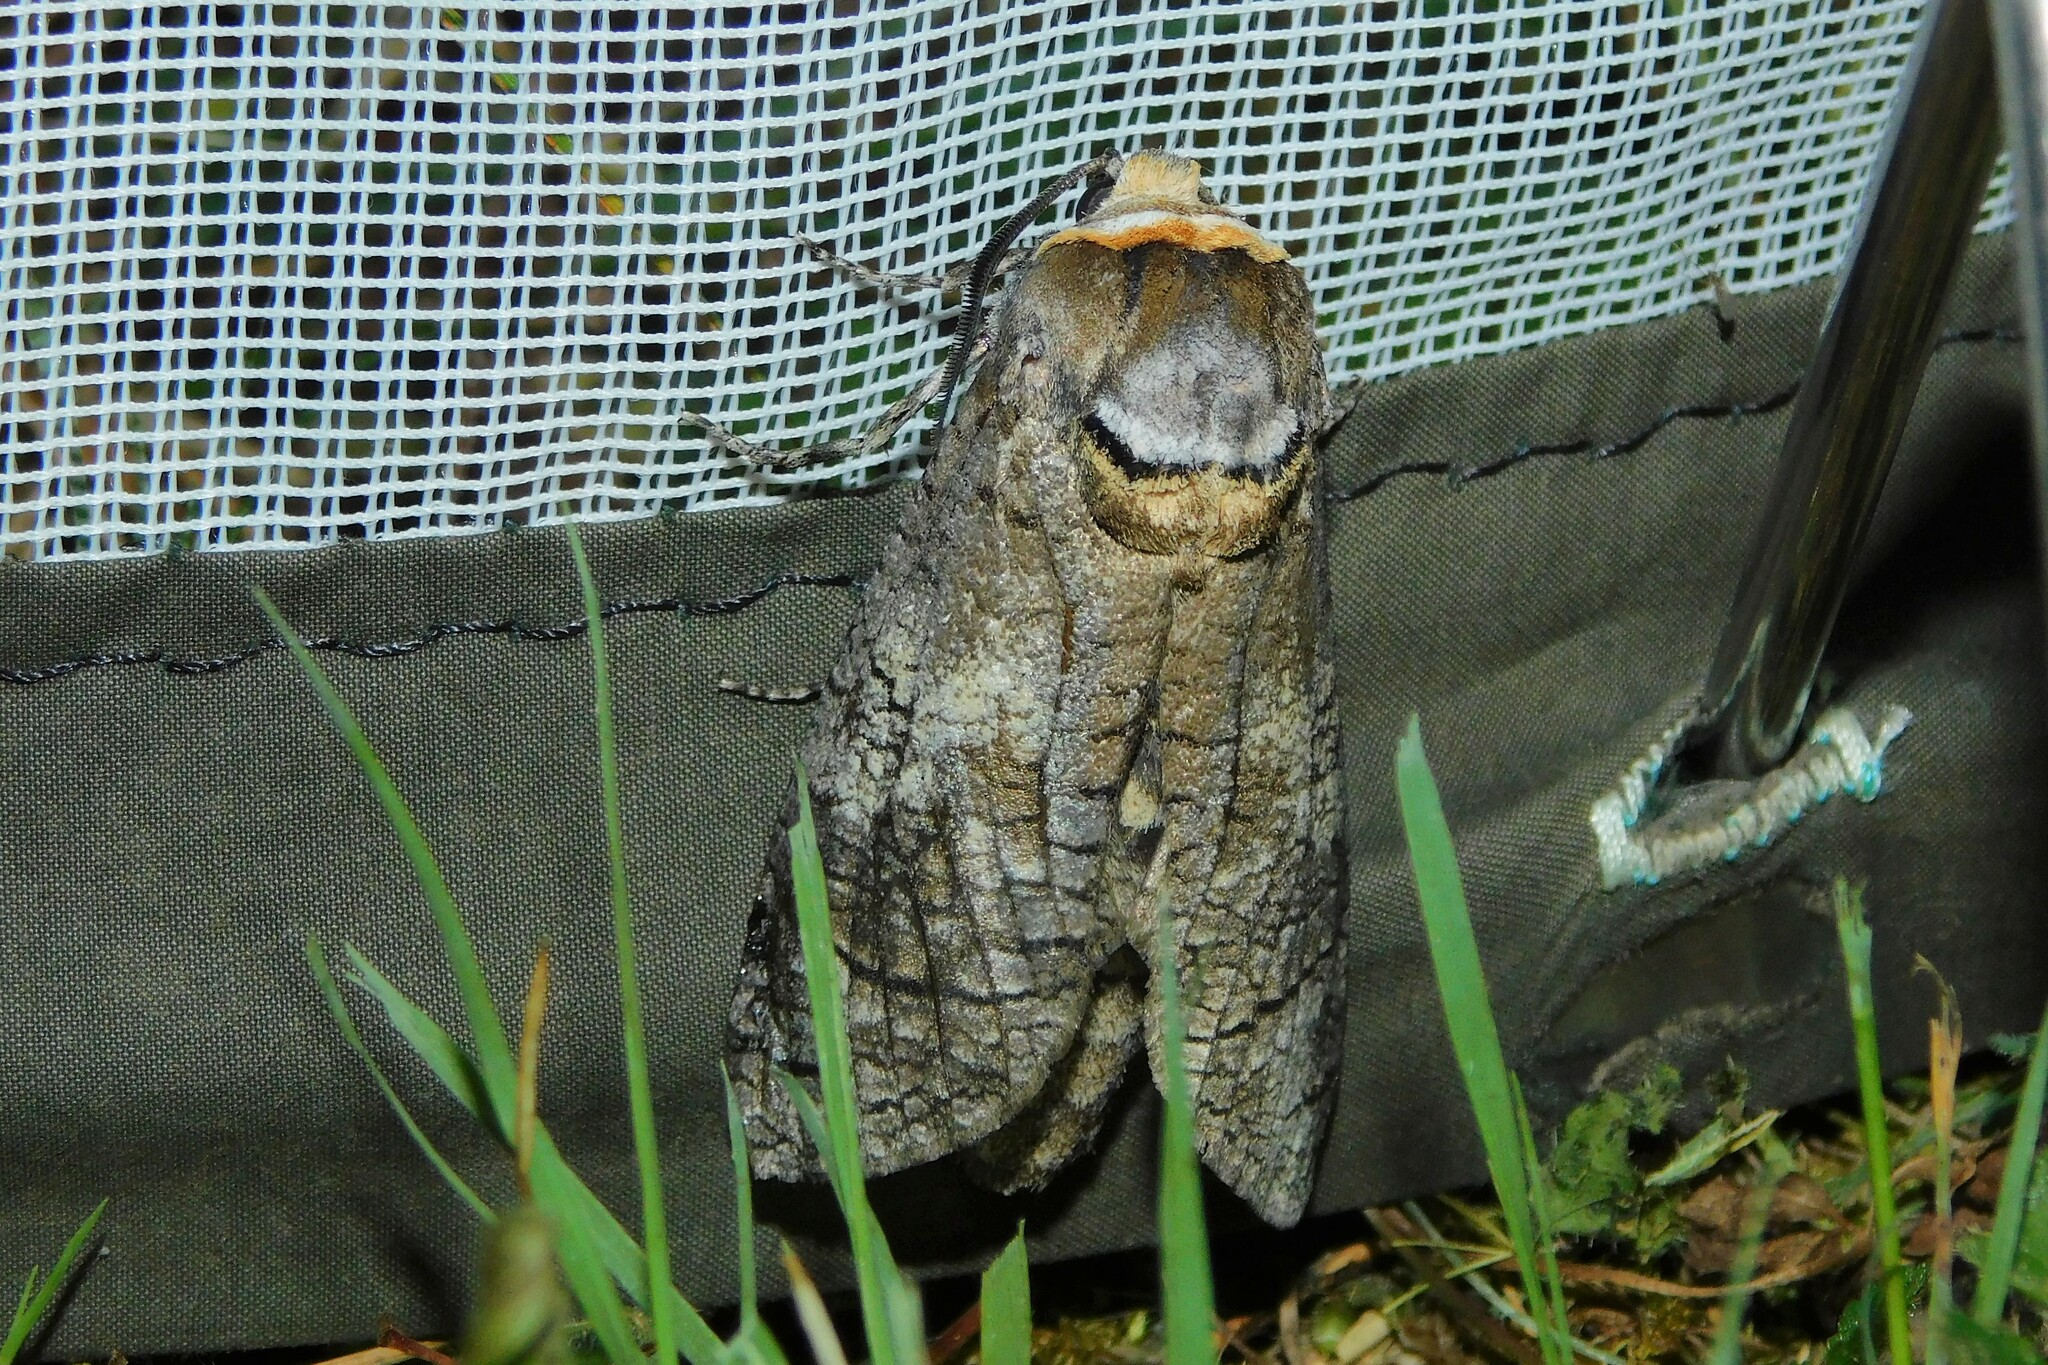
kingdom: Animalia
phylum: Arthropoda
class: Insecta
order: Lepidoptera
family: Cossidae
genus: Cossus
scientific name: Cossus cossus
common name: Goat moth
